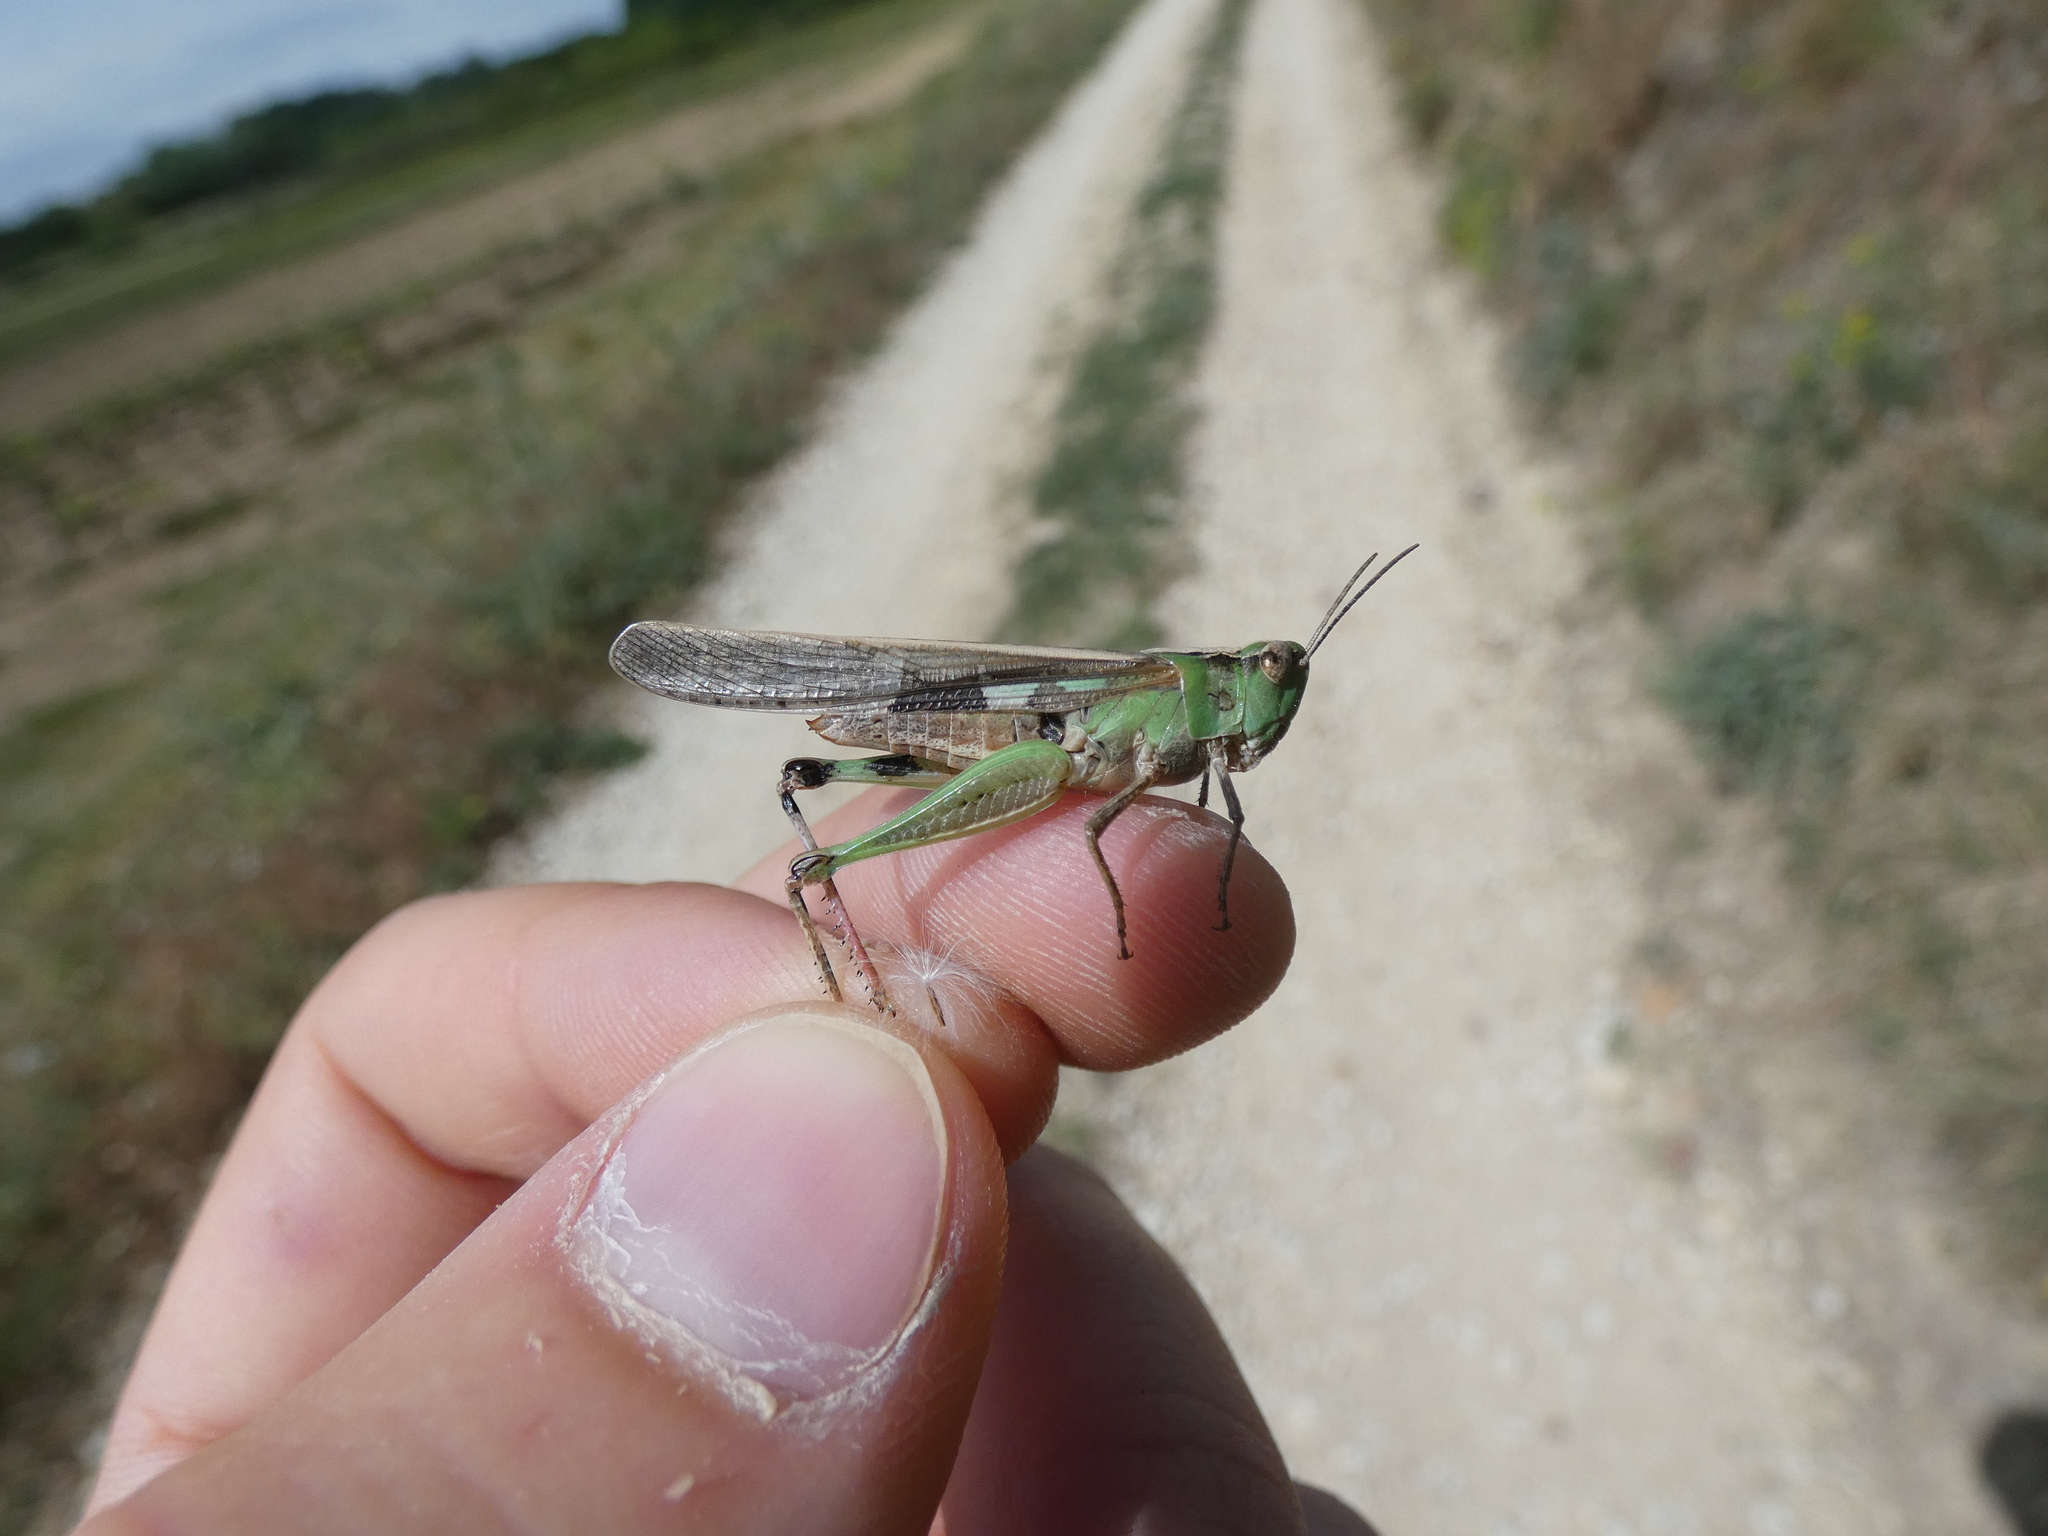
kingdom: Animalia
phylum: Arthropoda
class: Insecta
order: Orthoptera
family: Acrididae
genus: Aiolopus
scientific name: Aiolopus puissanti
